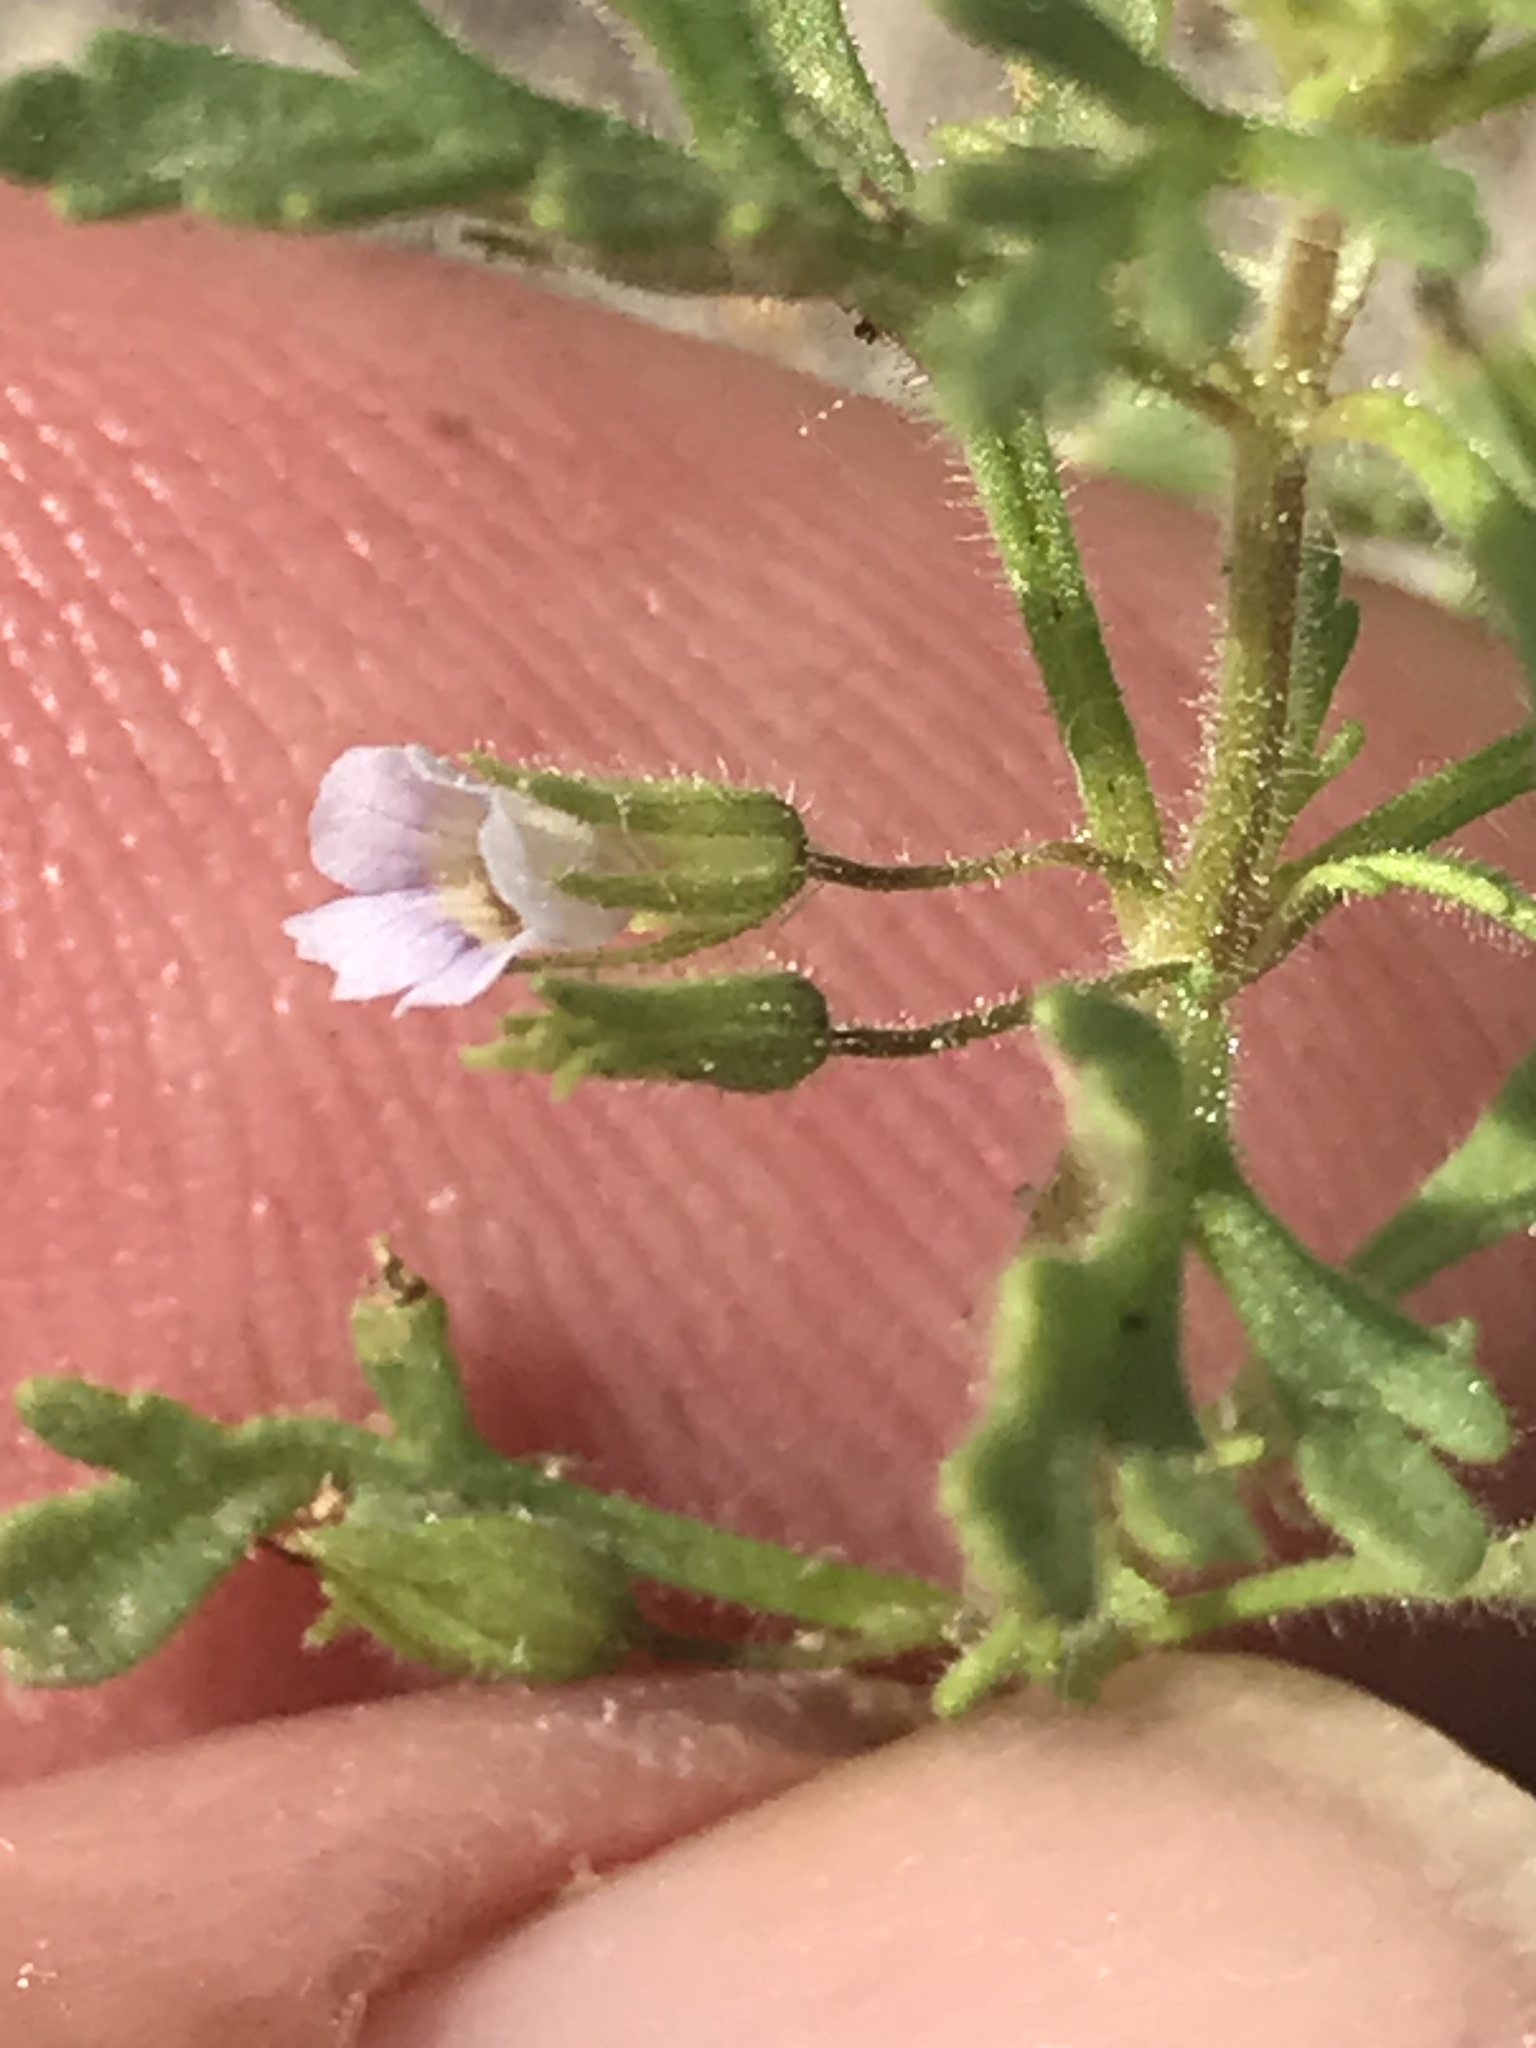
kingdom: Plantae
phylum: Tracheophyta
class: Magnoliopsida
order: Lamiales
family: Plantaginaceae
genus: Leucospora
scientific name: Leucospora multifida
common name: Narrow-leaf paleseed
